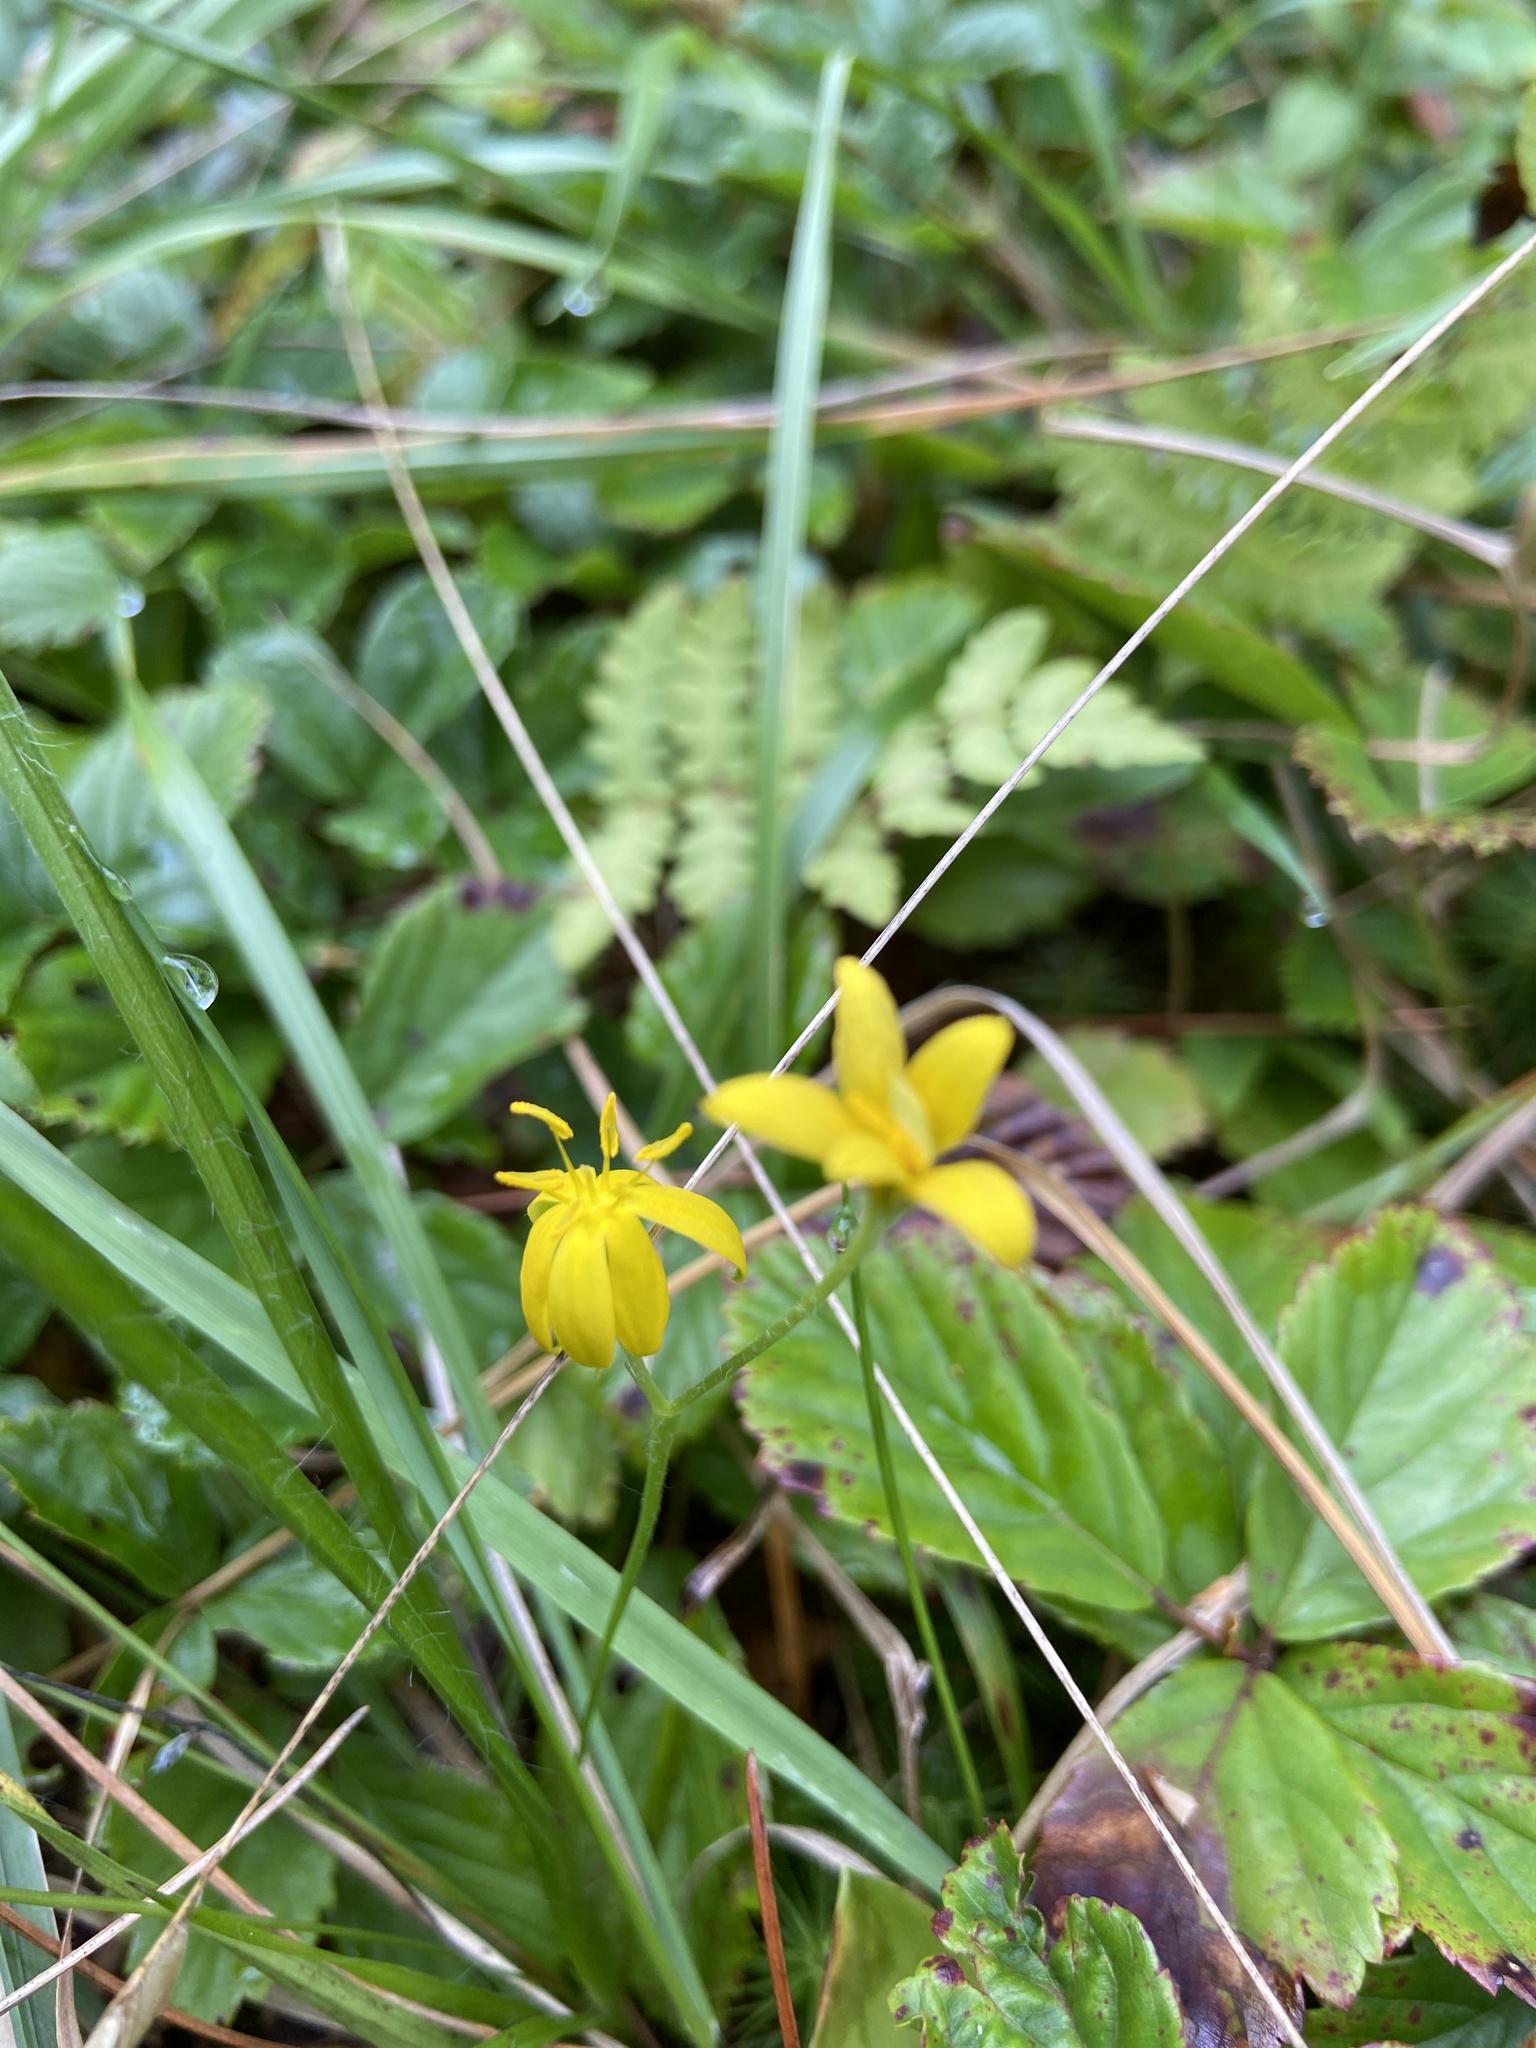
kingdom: Plantae
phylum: Tracheophyta
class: Liliopsida
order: Asparagales
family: Hypoxidaceae
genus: Hypoxis
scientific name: Hypoxis hirsuta
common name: Common goldstar
